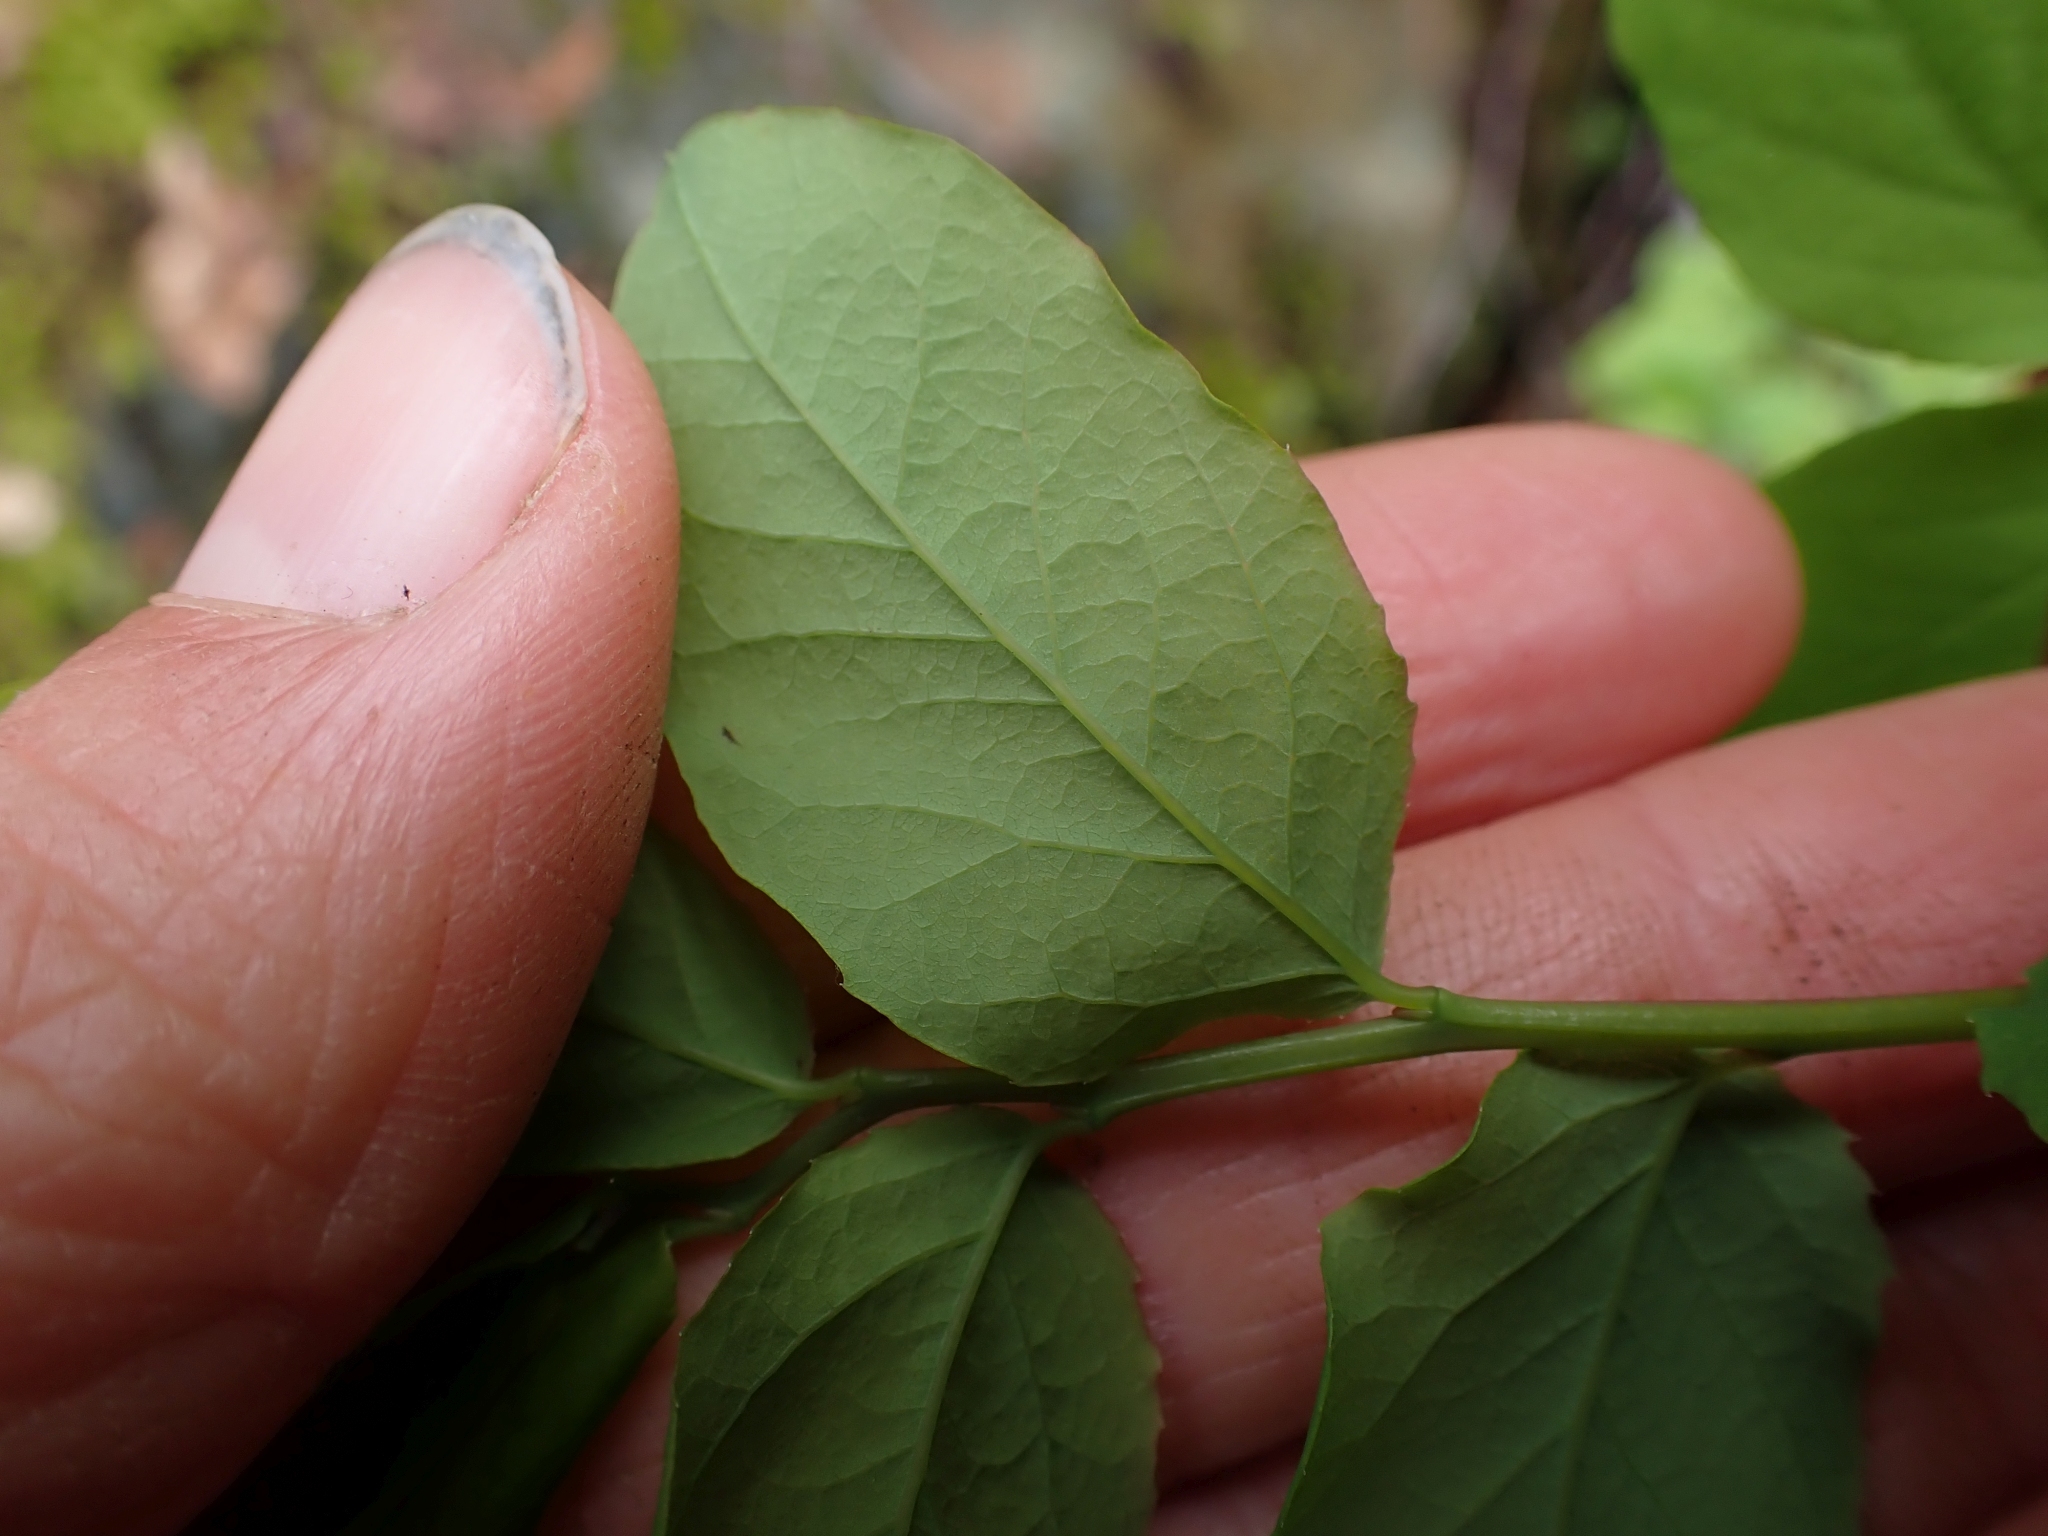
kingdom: Plantae
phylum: Tracheophyta
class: Magnoliopsida
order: Ericales
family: Ericaceae
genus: Vaccinium
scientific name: Vaccinium ovalifolium
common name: Early blueberry
